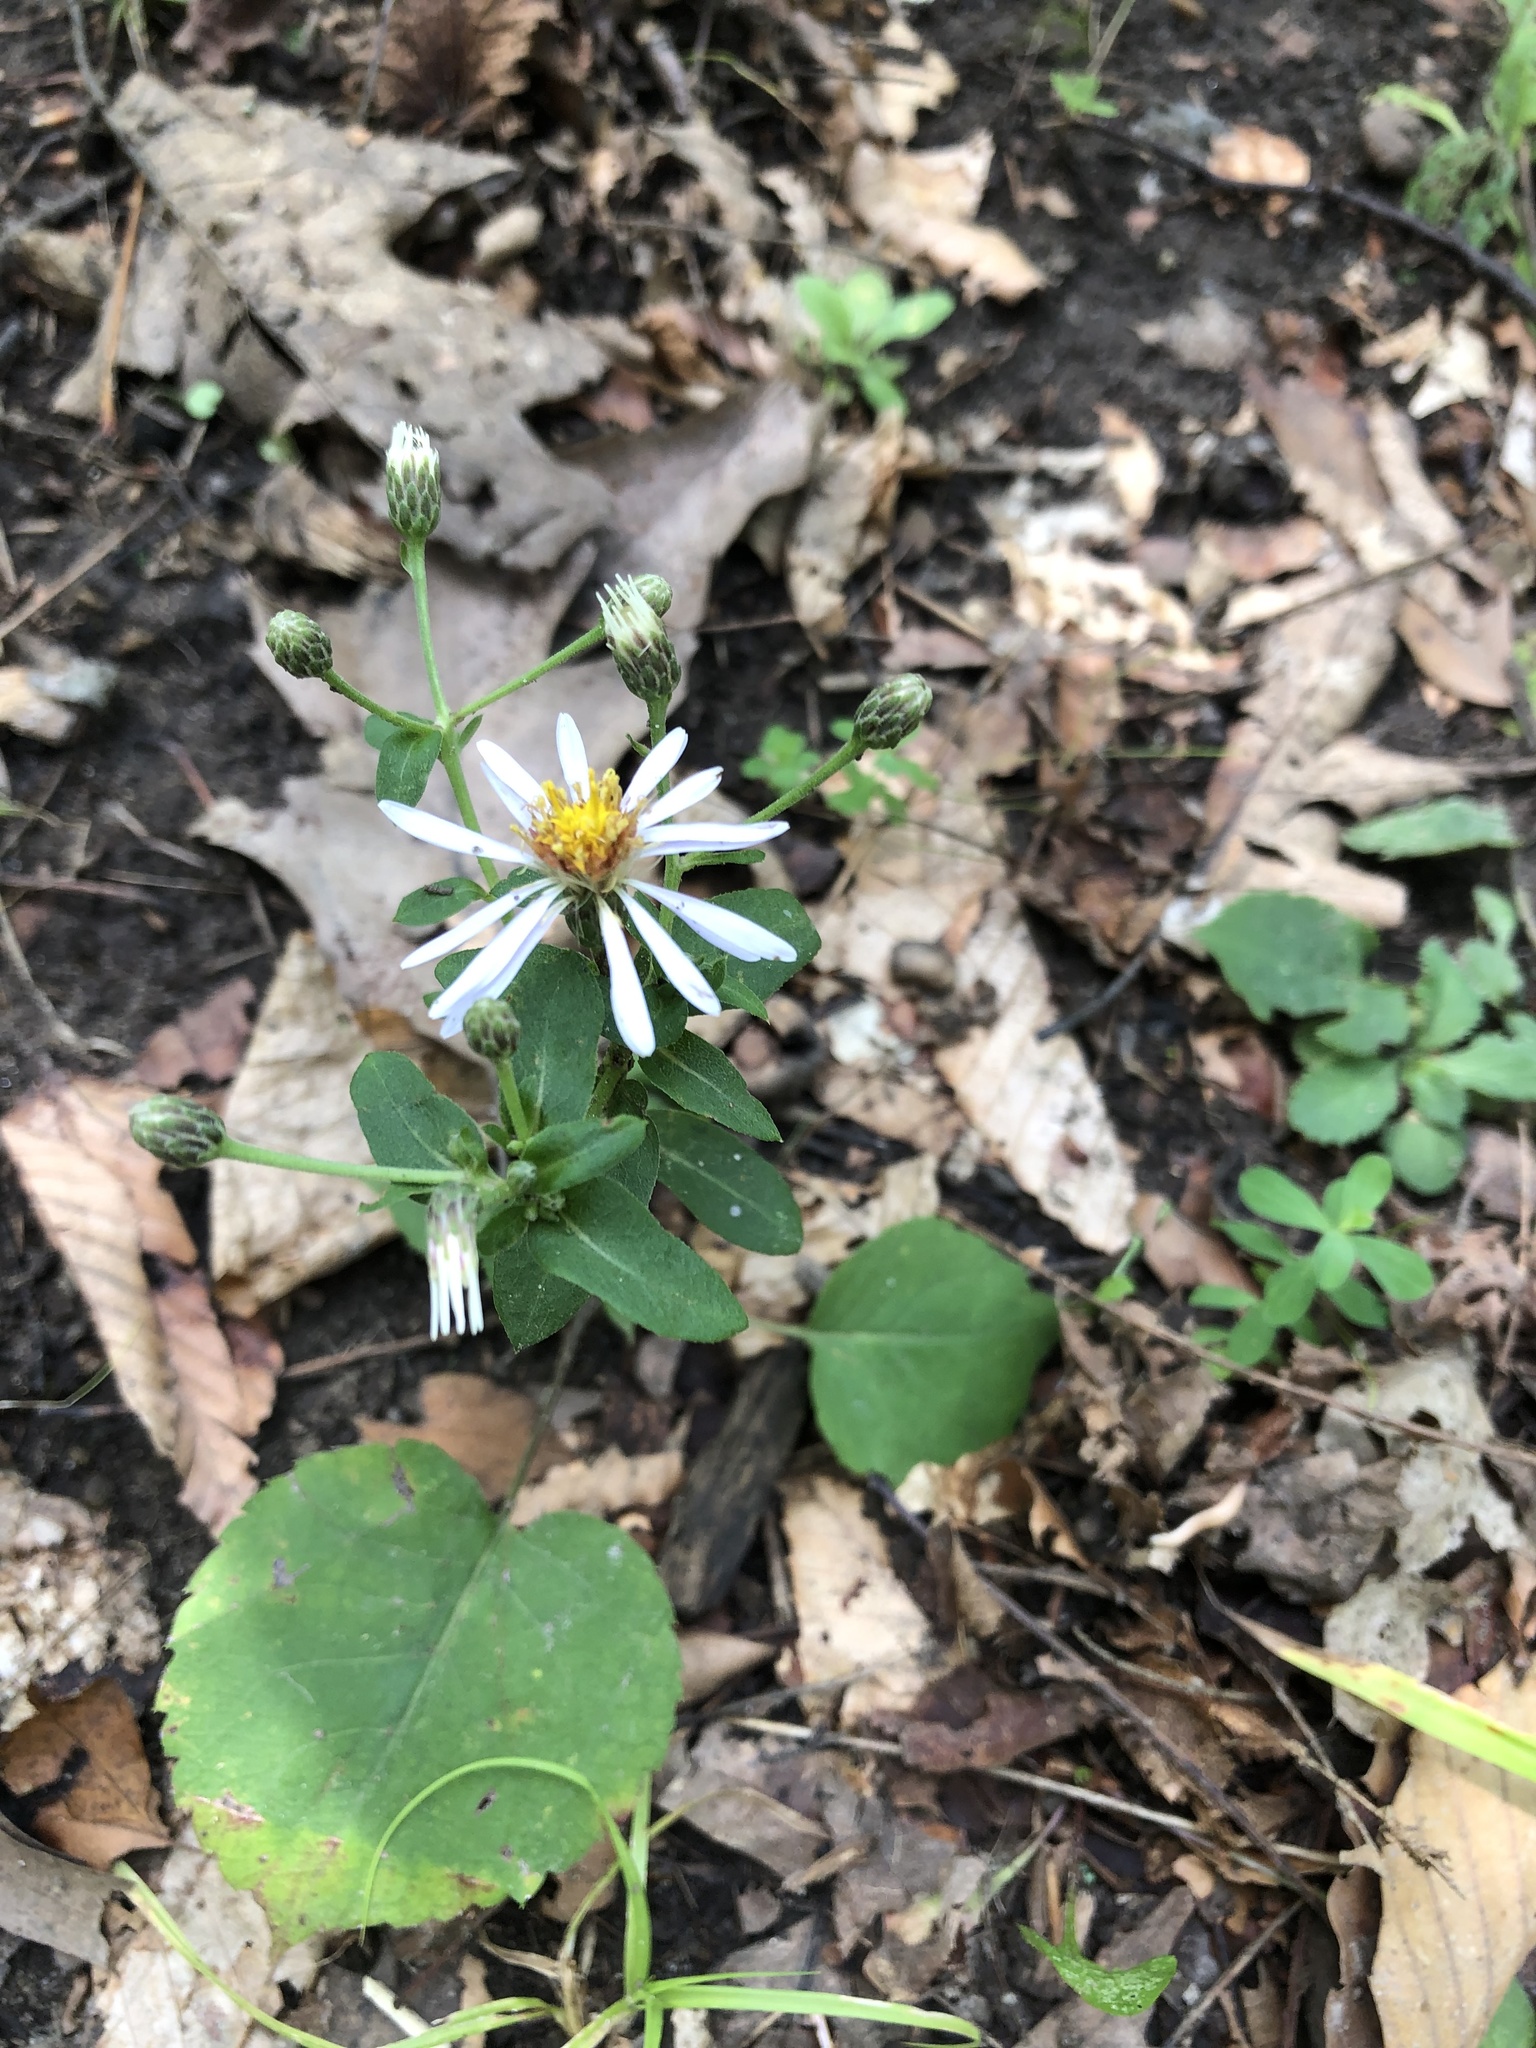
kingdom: Plantae
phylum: Tracheophyta
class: Magnoliopsida
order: Asterales
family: Asteraceae
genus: Eurybia
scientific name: Eurybia macrophylla
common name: Big-leaved aster
